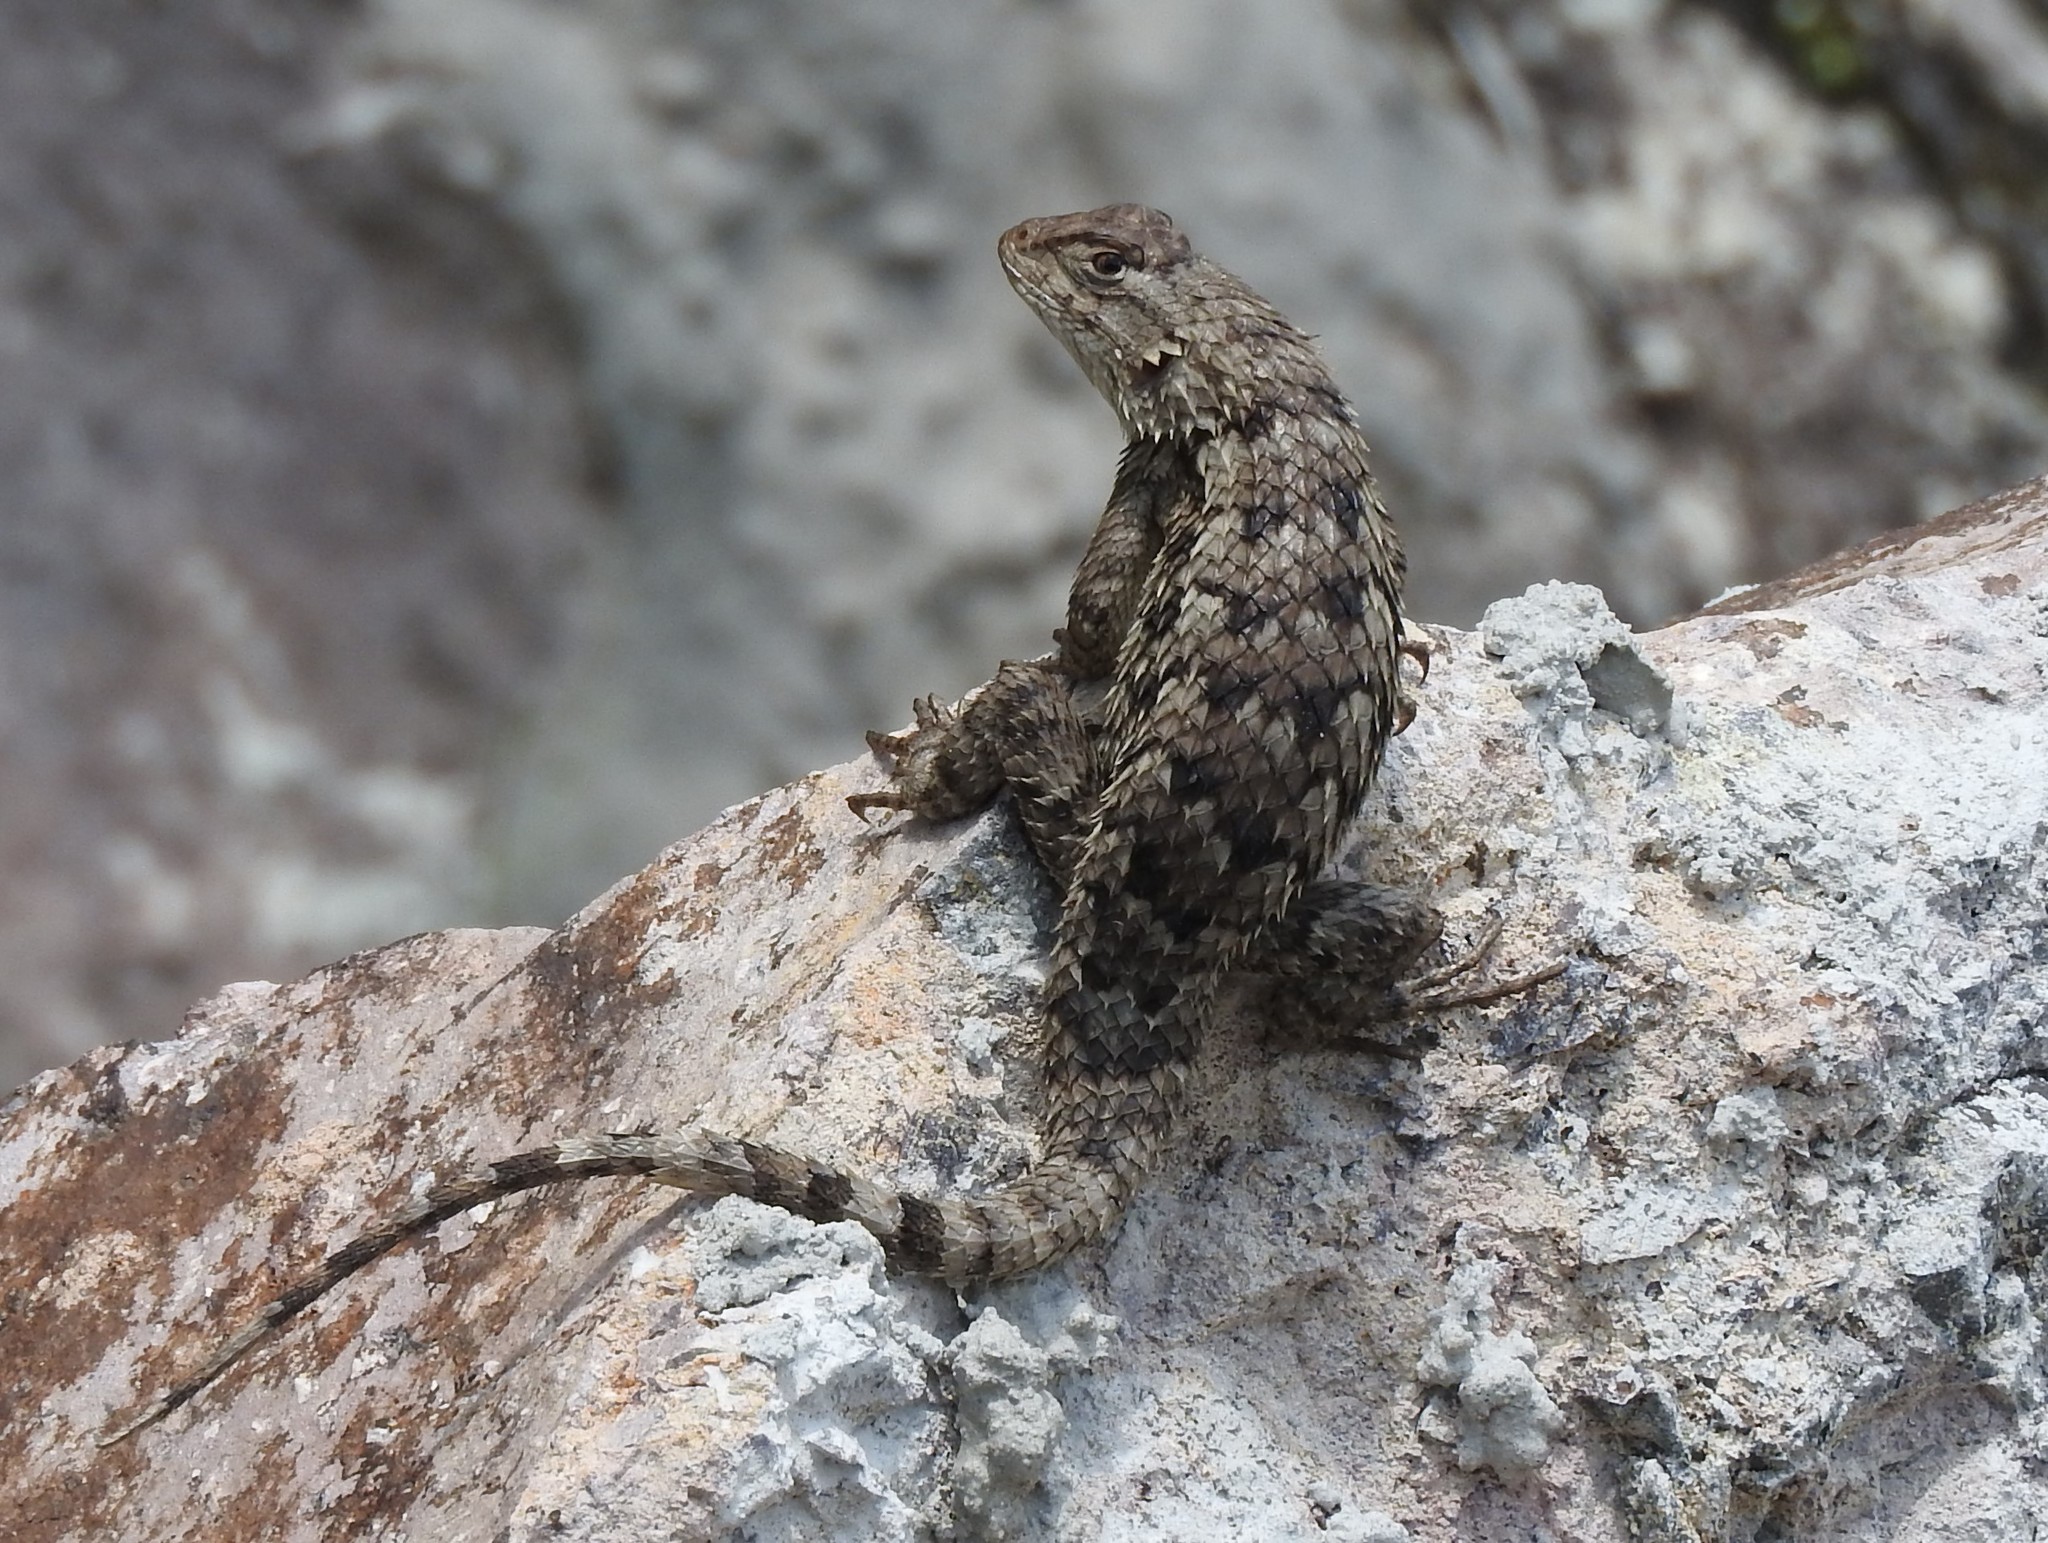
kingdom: Animalia
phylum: Chordata
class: Squamata
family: Phrynosomatidae
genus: Sceloporus
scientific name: Sceloporus spinosus
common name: Blue-spotted spiny lizard [caeruleopunctatus]
